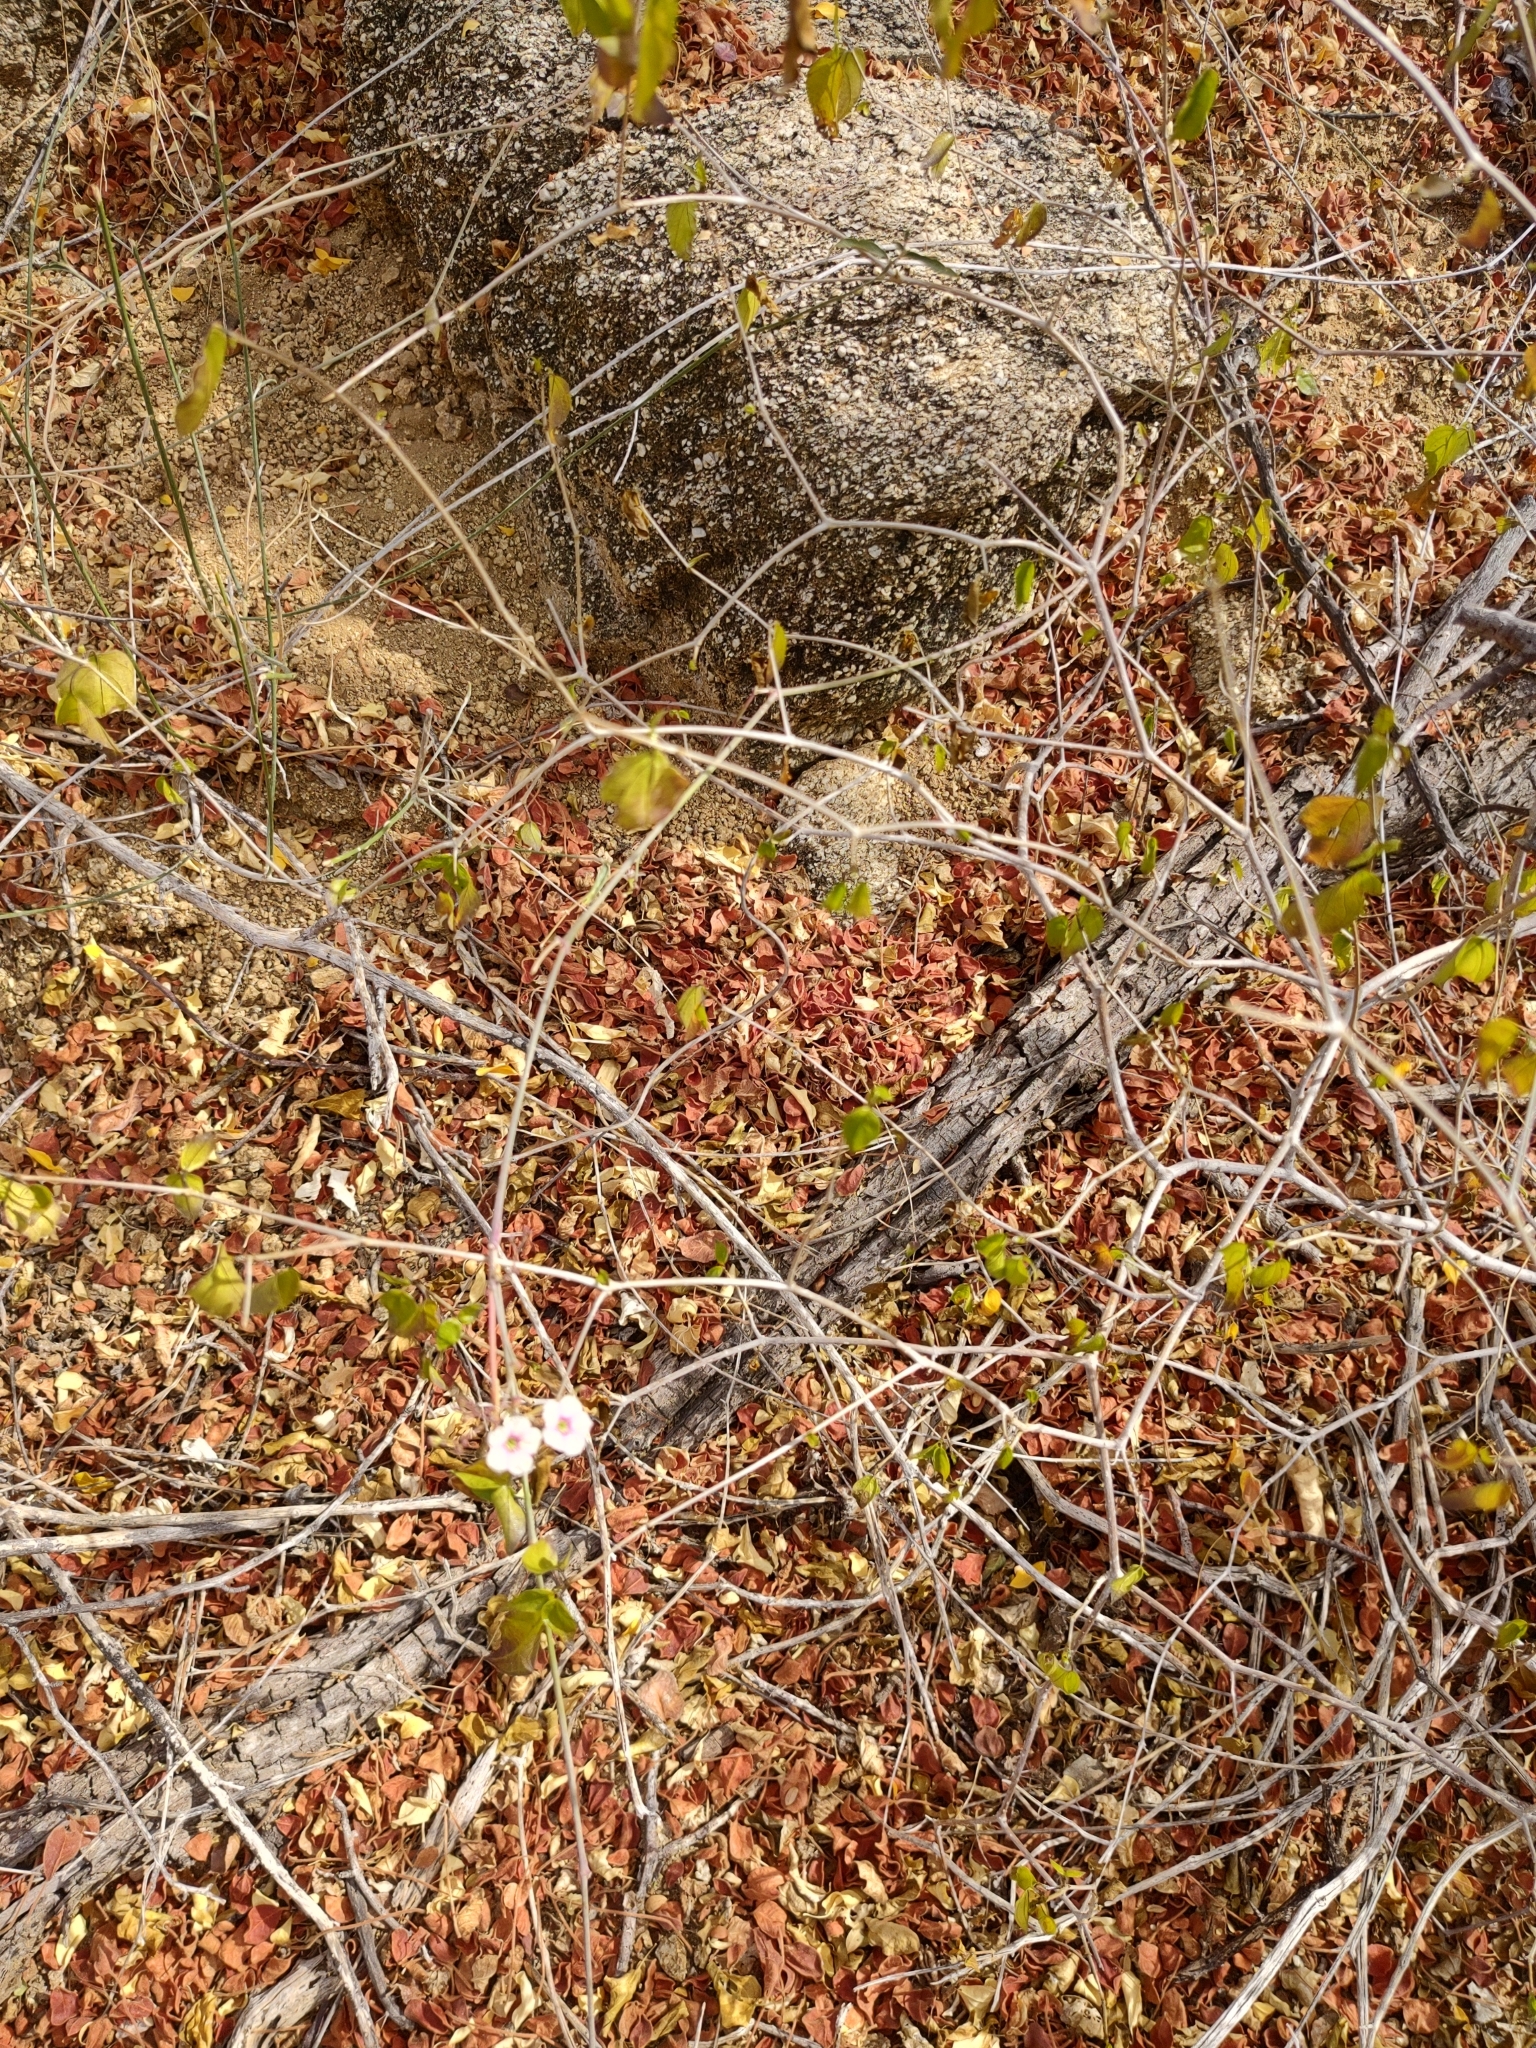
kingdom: Plantae
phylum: Tracheophyta
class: Magnoliopsida
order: Caryophyllales
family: Nyctaginaceae
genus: Commicarpus
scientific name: Commicarpus brandegeei
